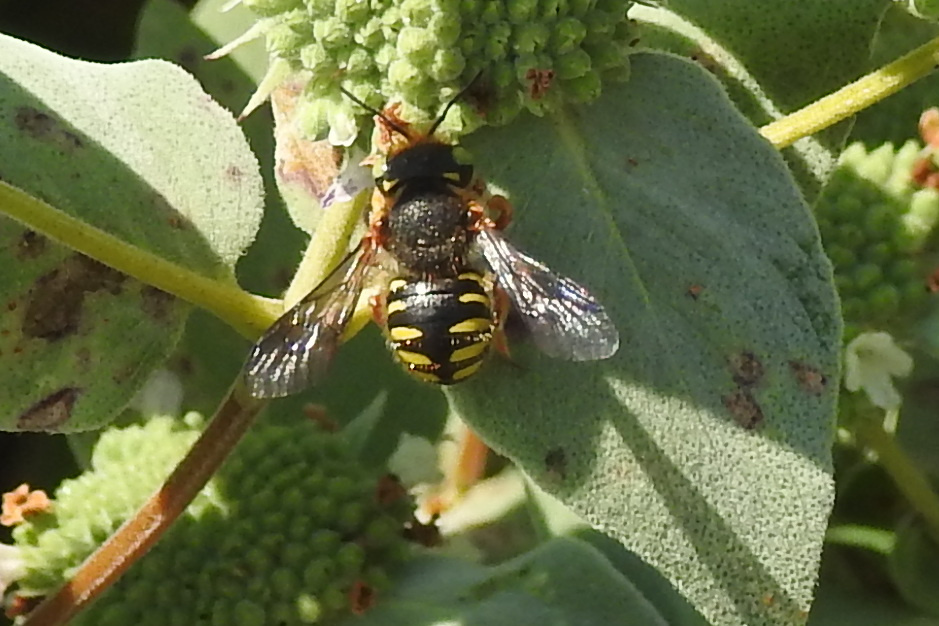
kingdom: Animalia
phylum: Arthropoda
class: Insecta
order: Hymenoptera
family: Megachilidae
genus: Anthidium
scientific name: Anthidium oblongatum
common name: Oblong wool carder bee
